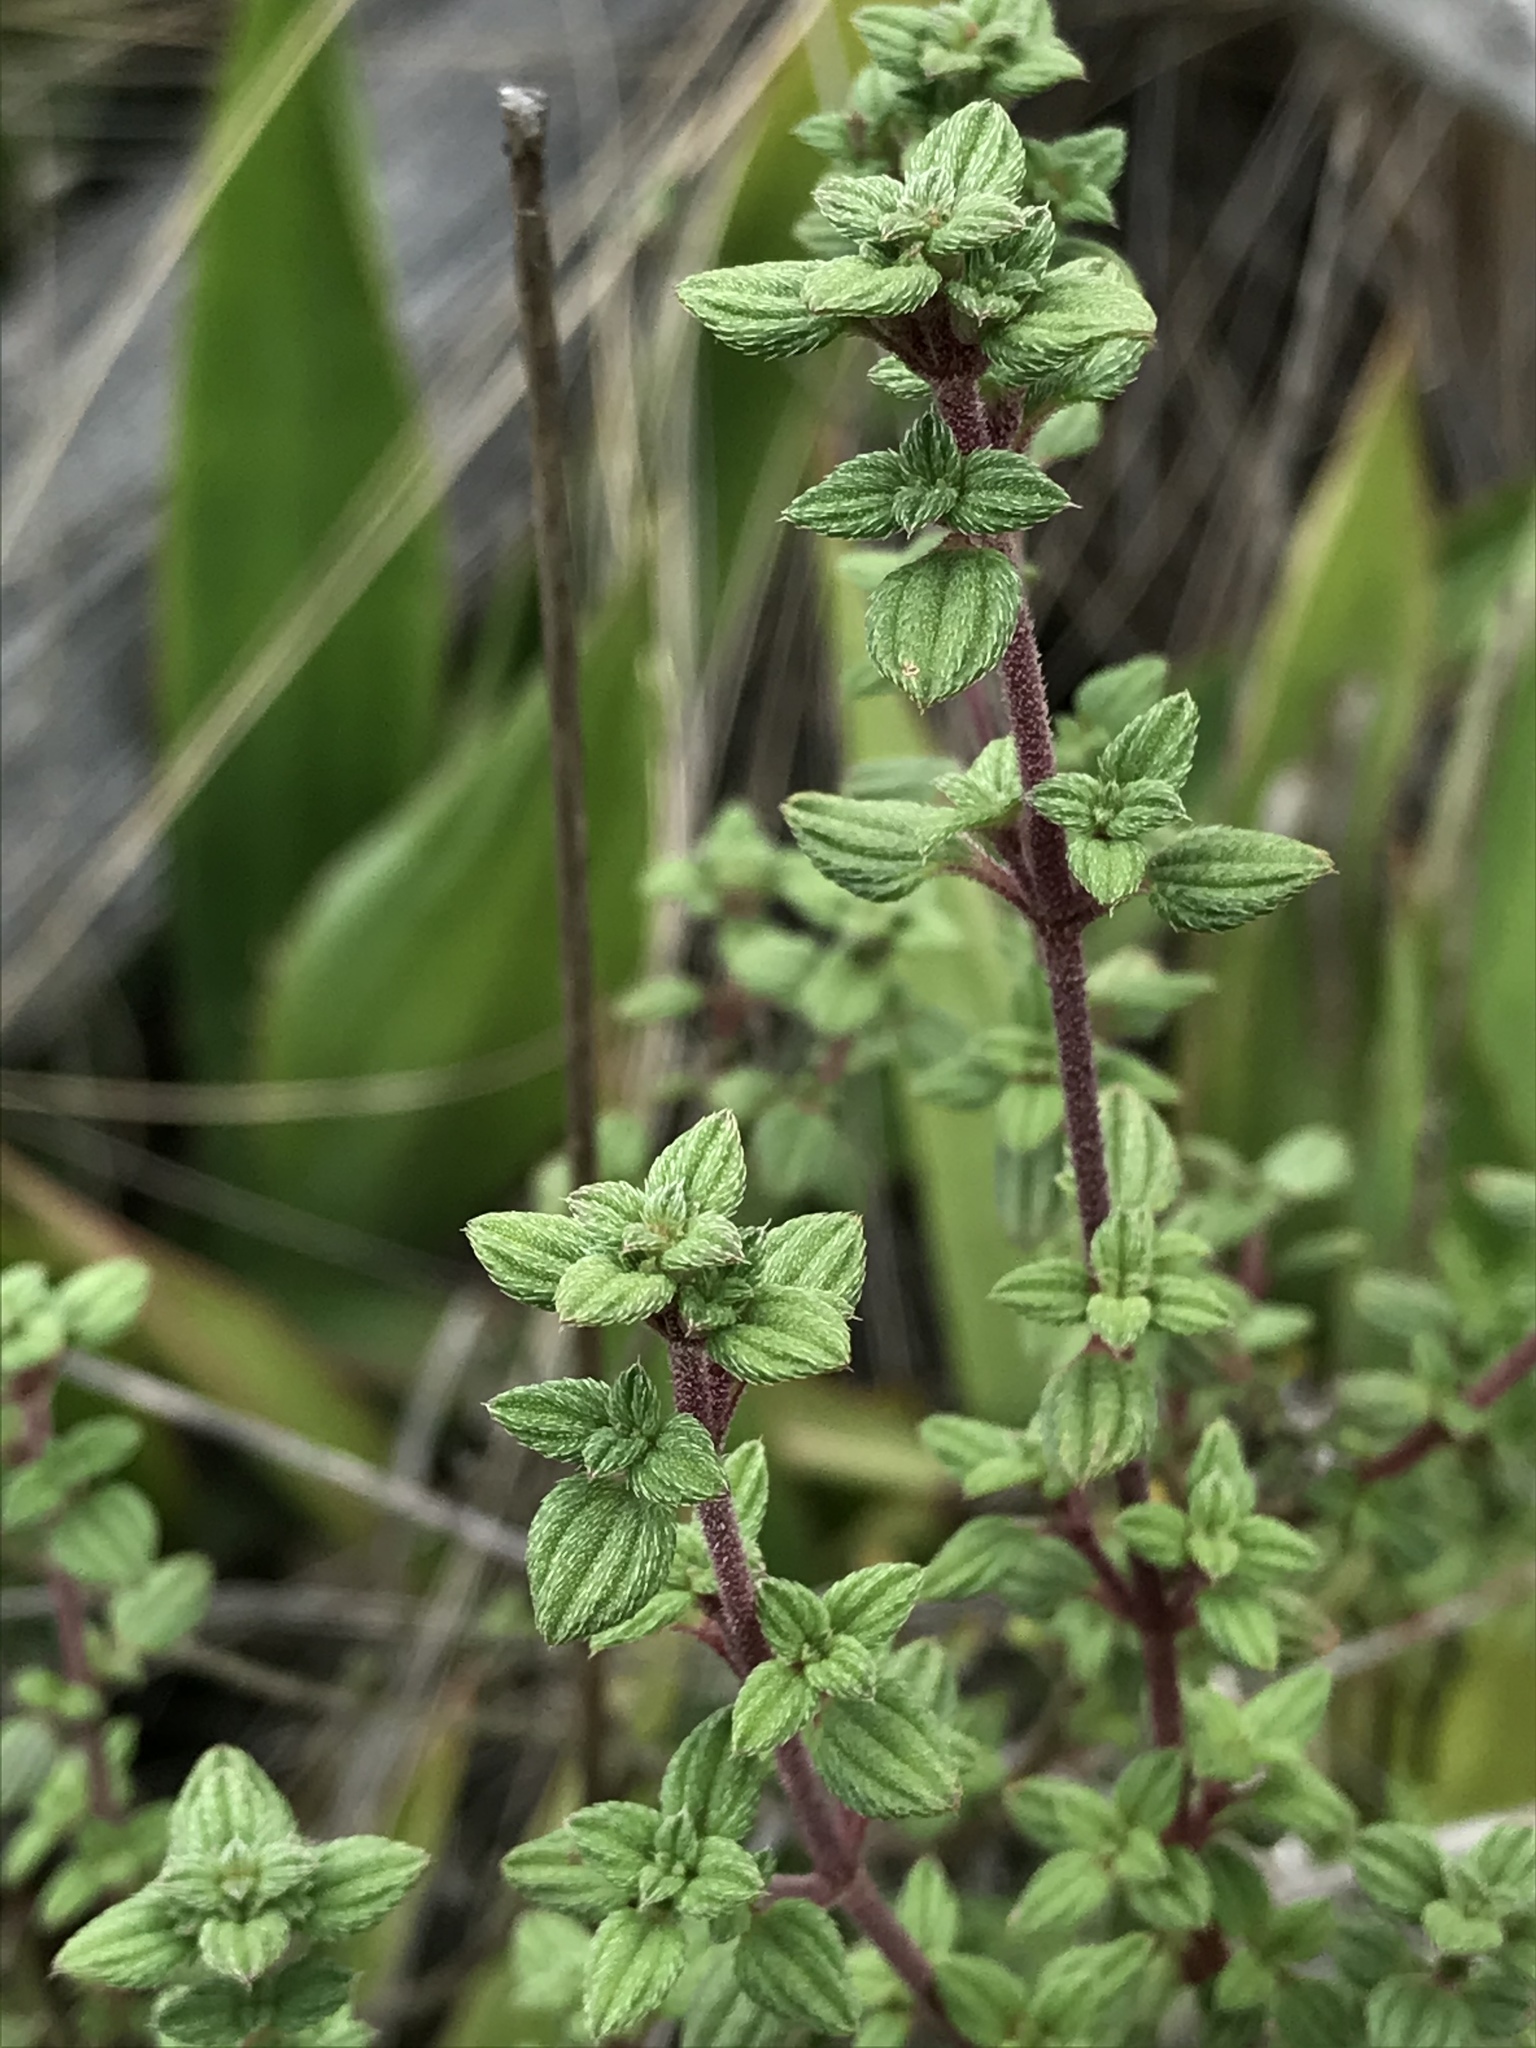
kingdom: Plantae
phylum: Tracheophyta
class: Magnoliopsida
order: Myrtales
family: Melastomataceae
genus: Chaetolepis
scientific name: Chaetolepis microphylla
